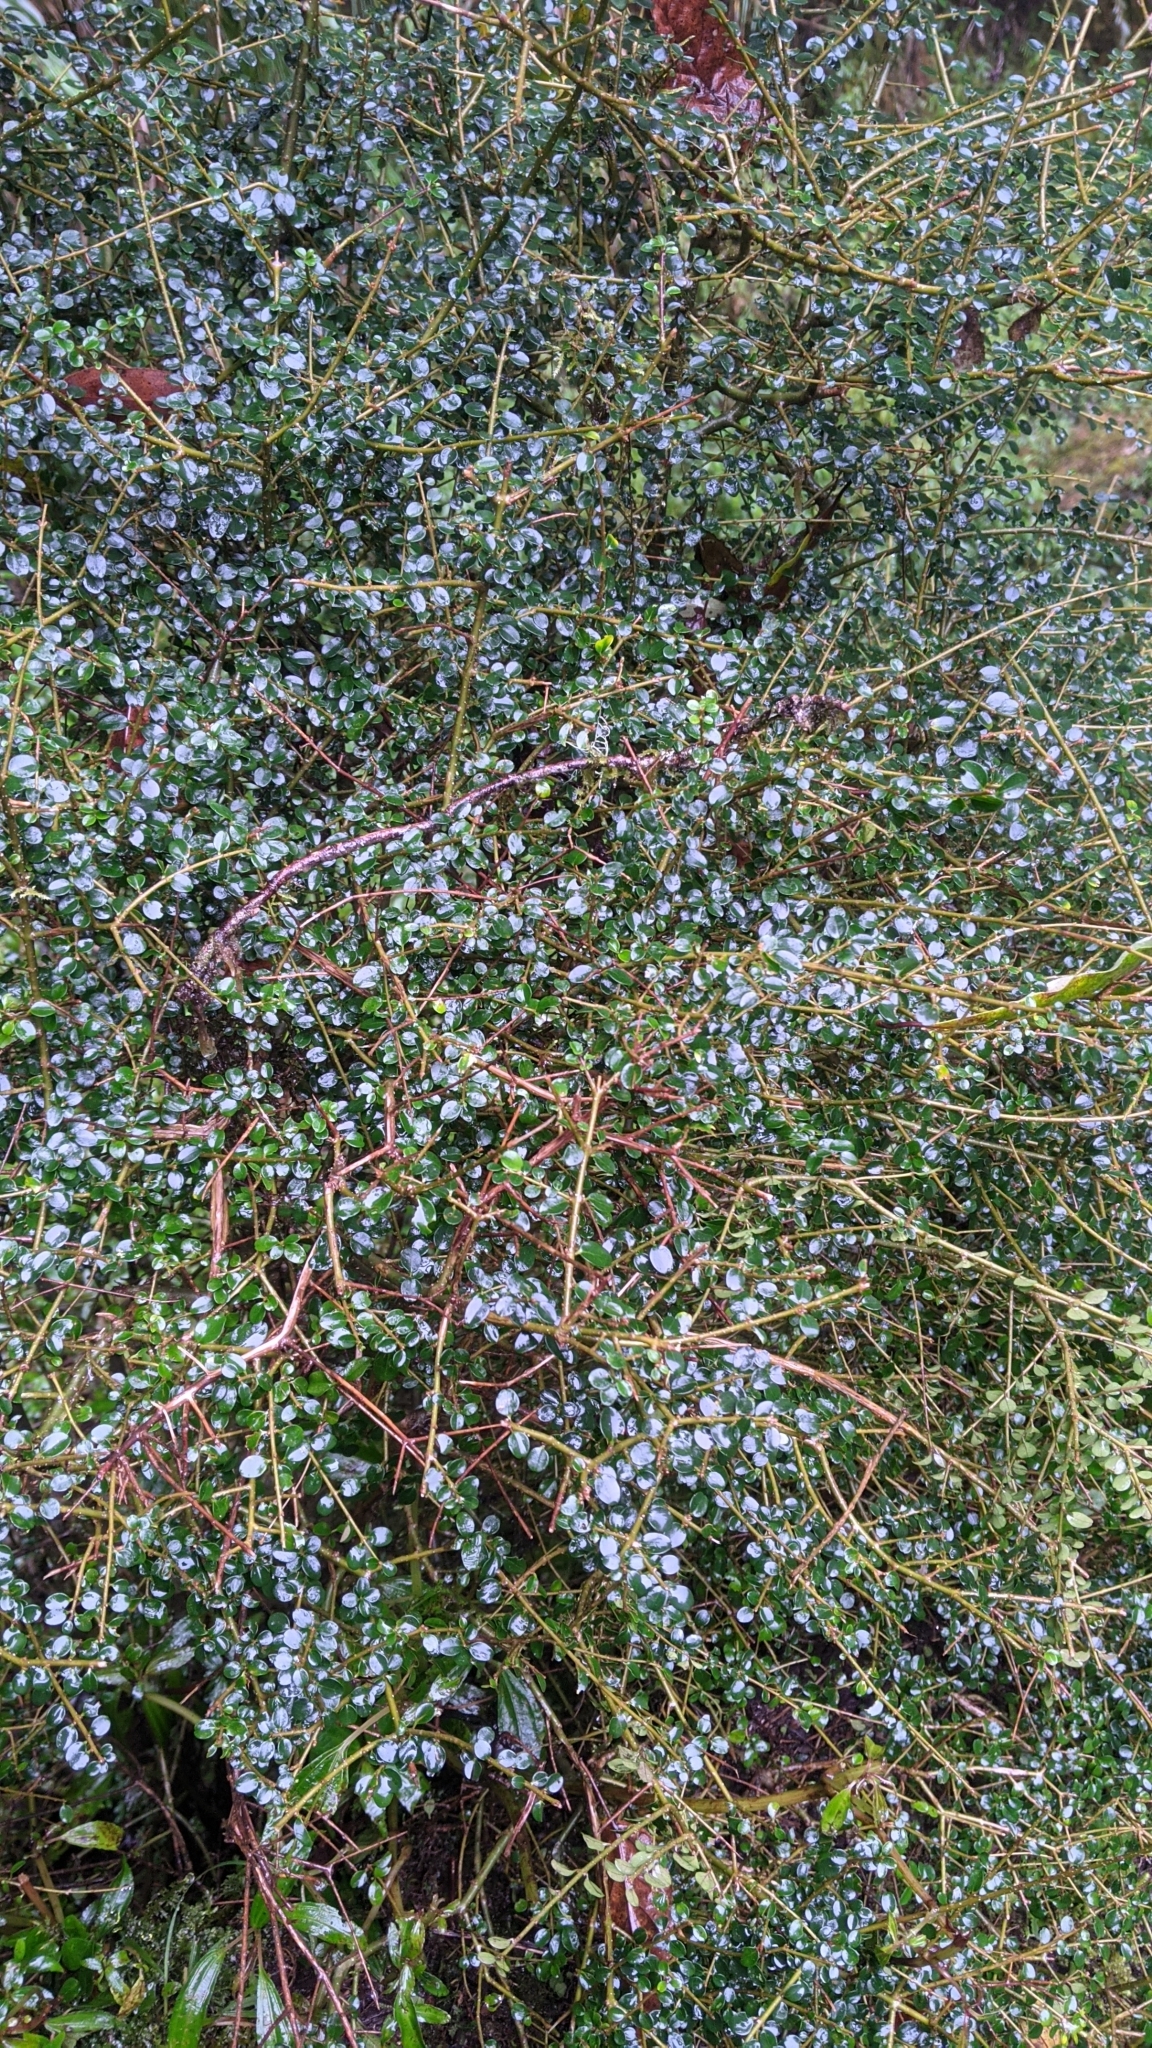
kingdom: Plantae
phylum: Tracheophyta
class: Magnoliopsida
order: Lamiales
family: Oleaceae
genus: Ligustrum
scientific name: Ligustrum morrisonense
